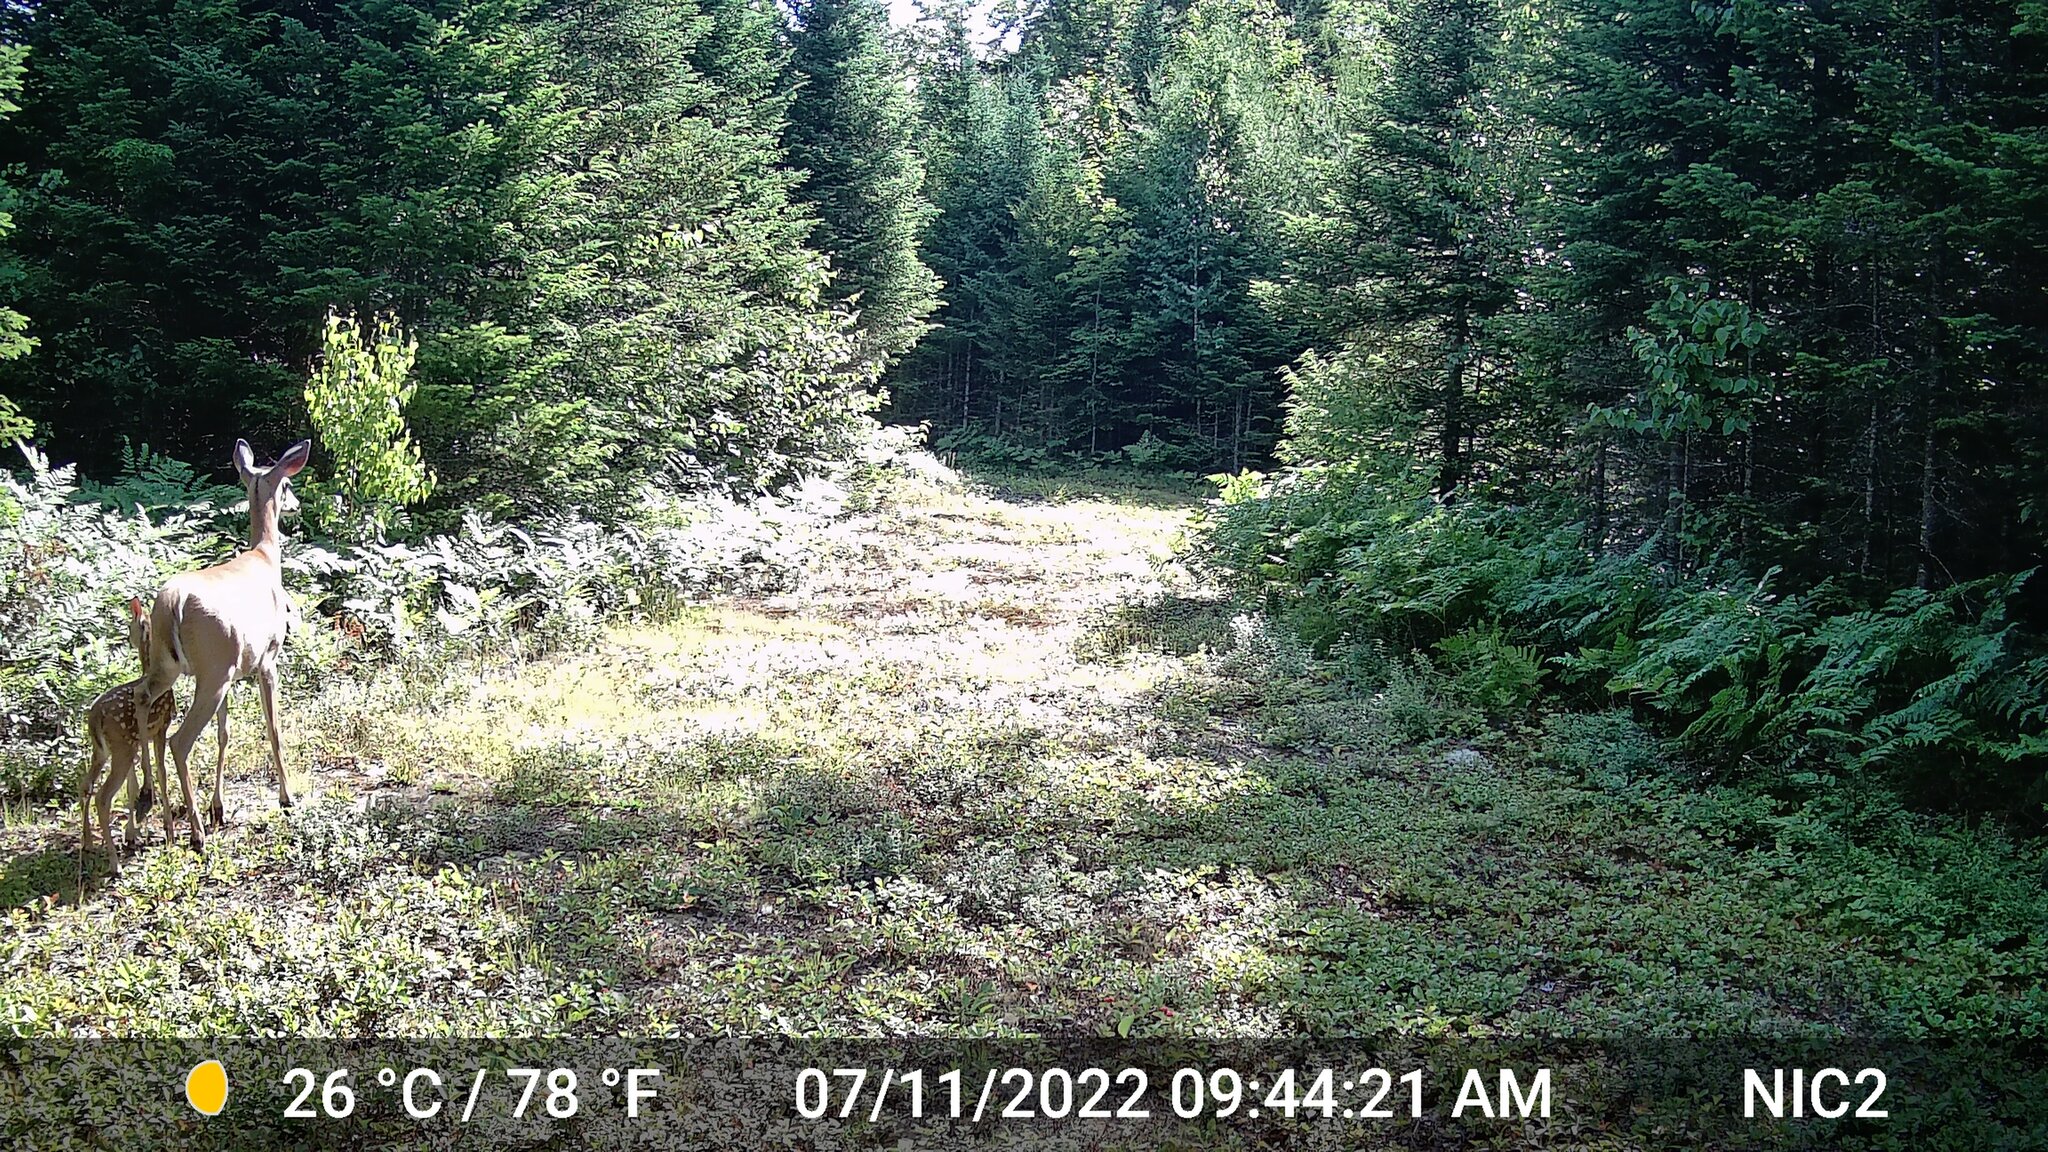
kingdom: Animalia
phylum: Chordata
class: Mammalia
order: Artiodactyla
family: Cervidae
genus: Odocoileus
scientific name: Odocoileus virginianus
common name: White-tailed deer
